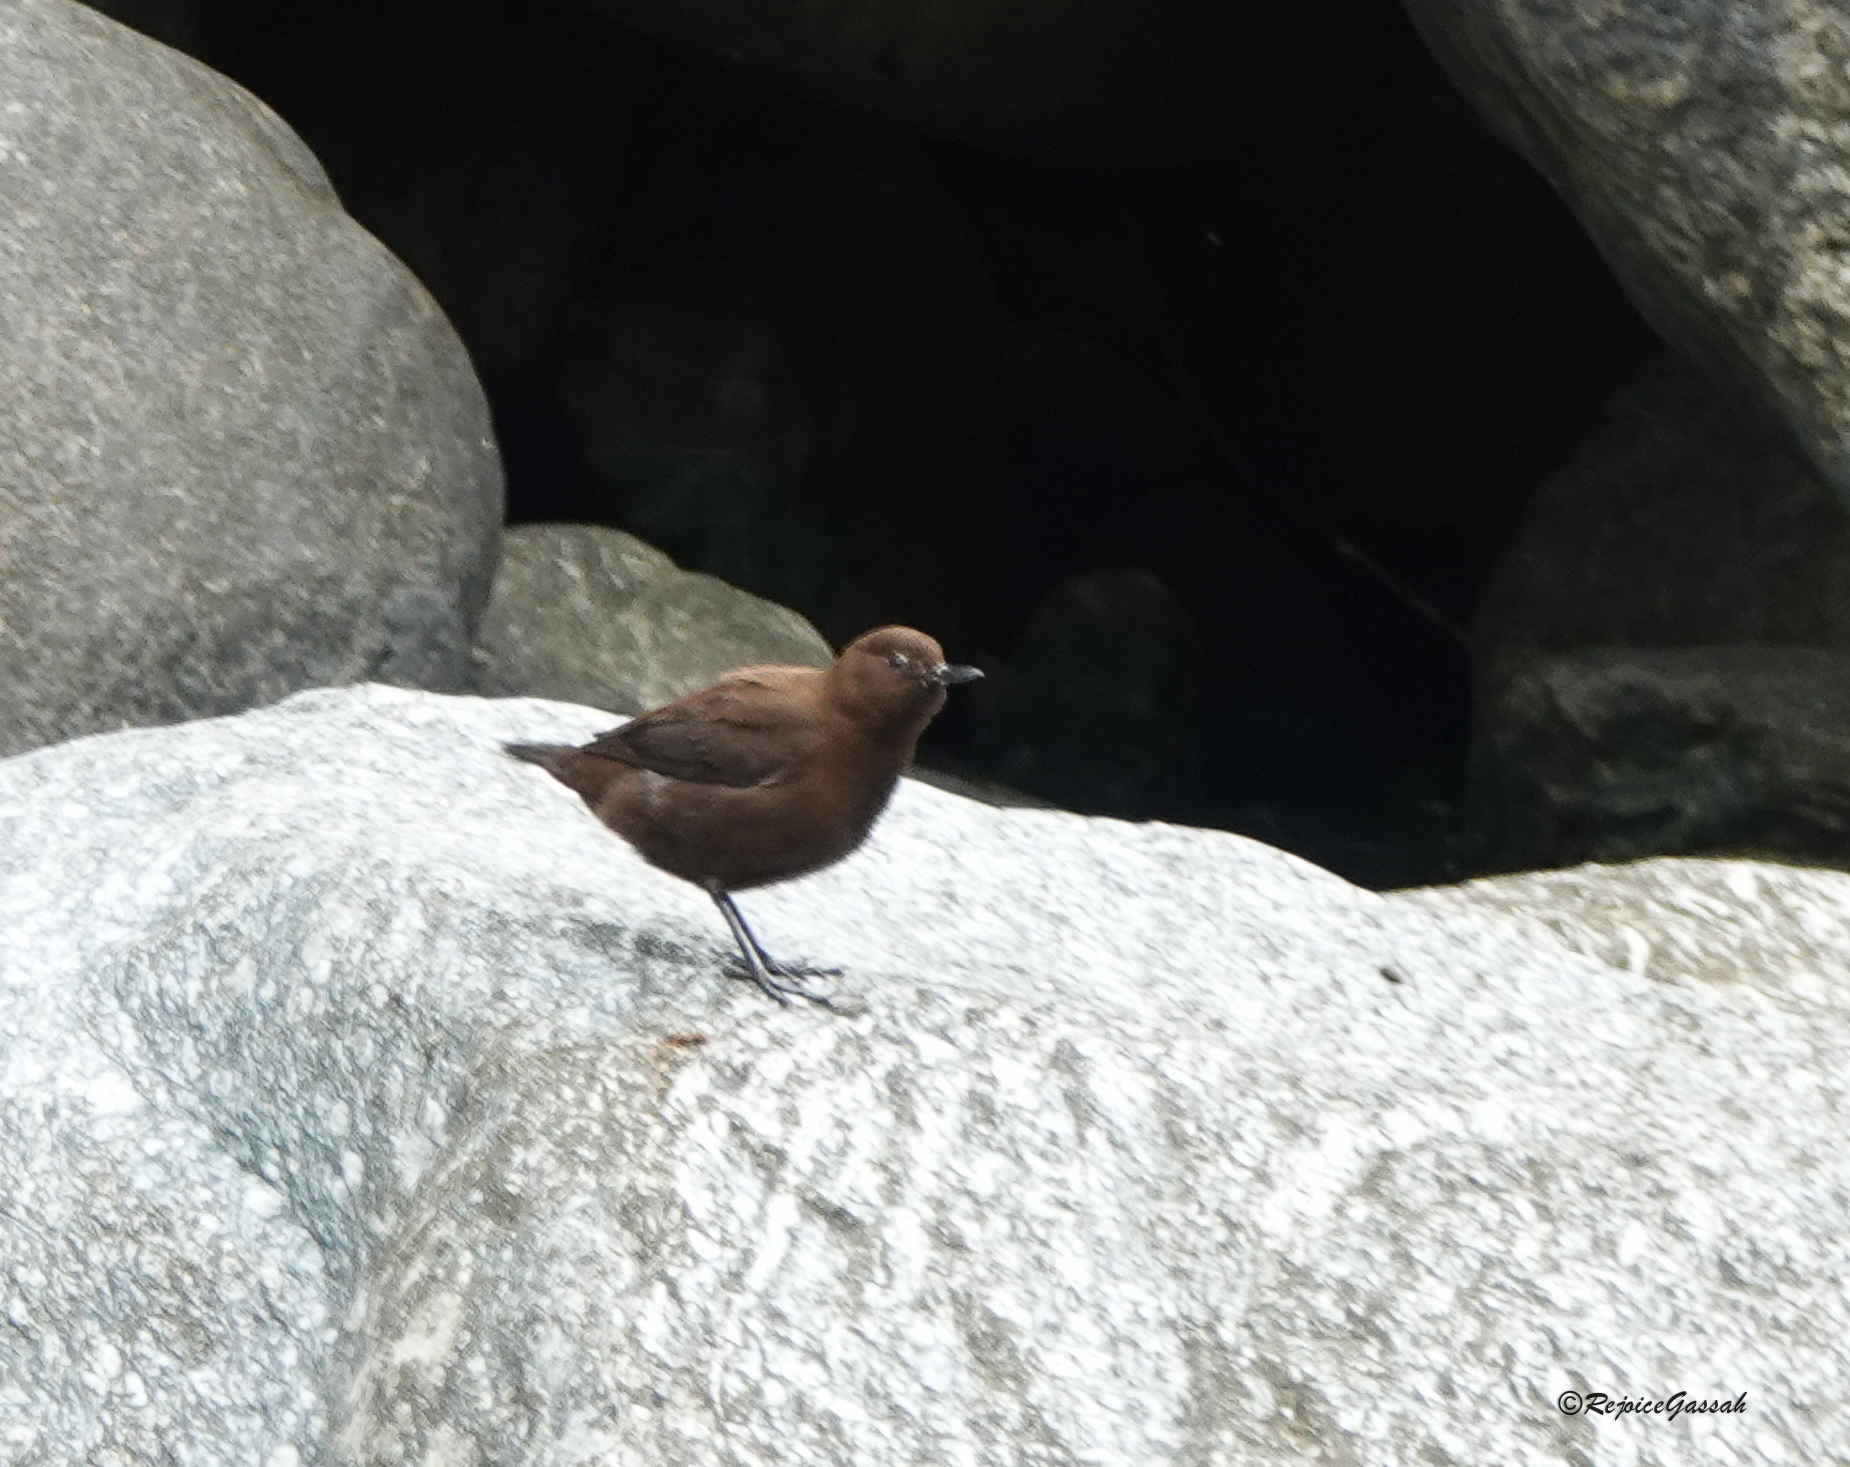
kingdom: Animalia
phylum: Chordata
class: Aves
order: Passeriformes
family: Cinclidae
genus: Cinclus
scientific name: Cinclus pallasii
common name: Brown dipper
